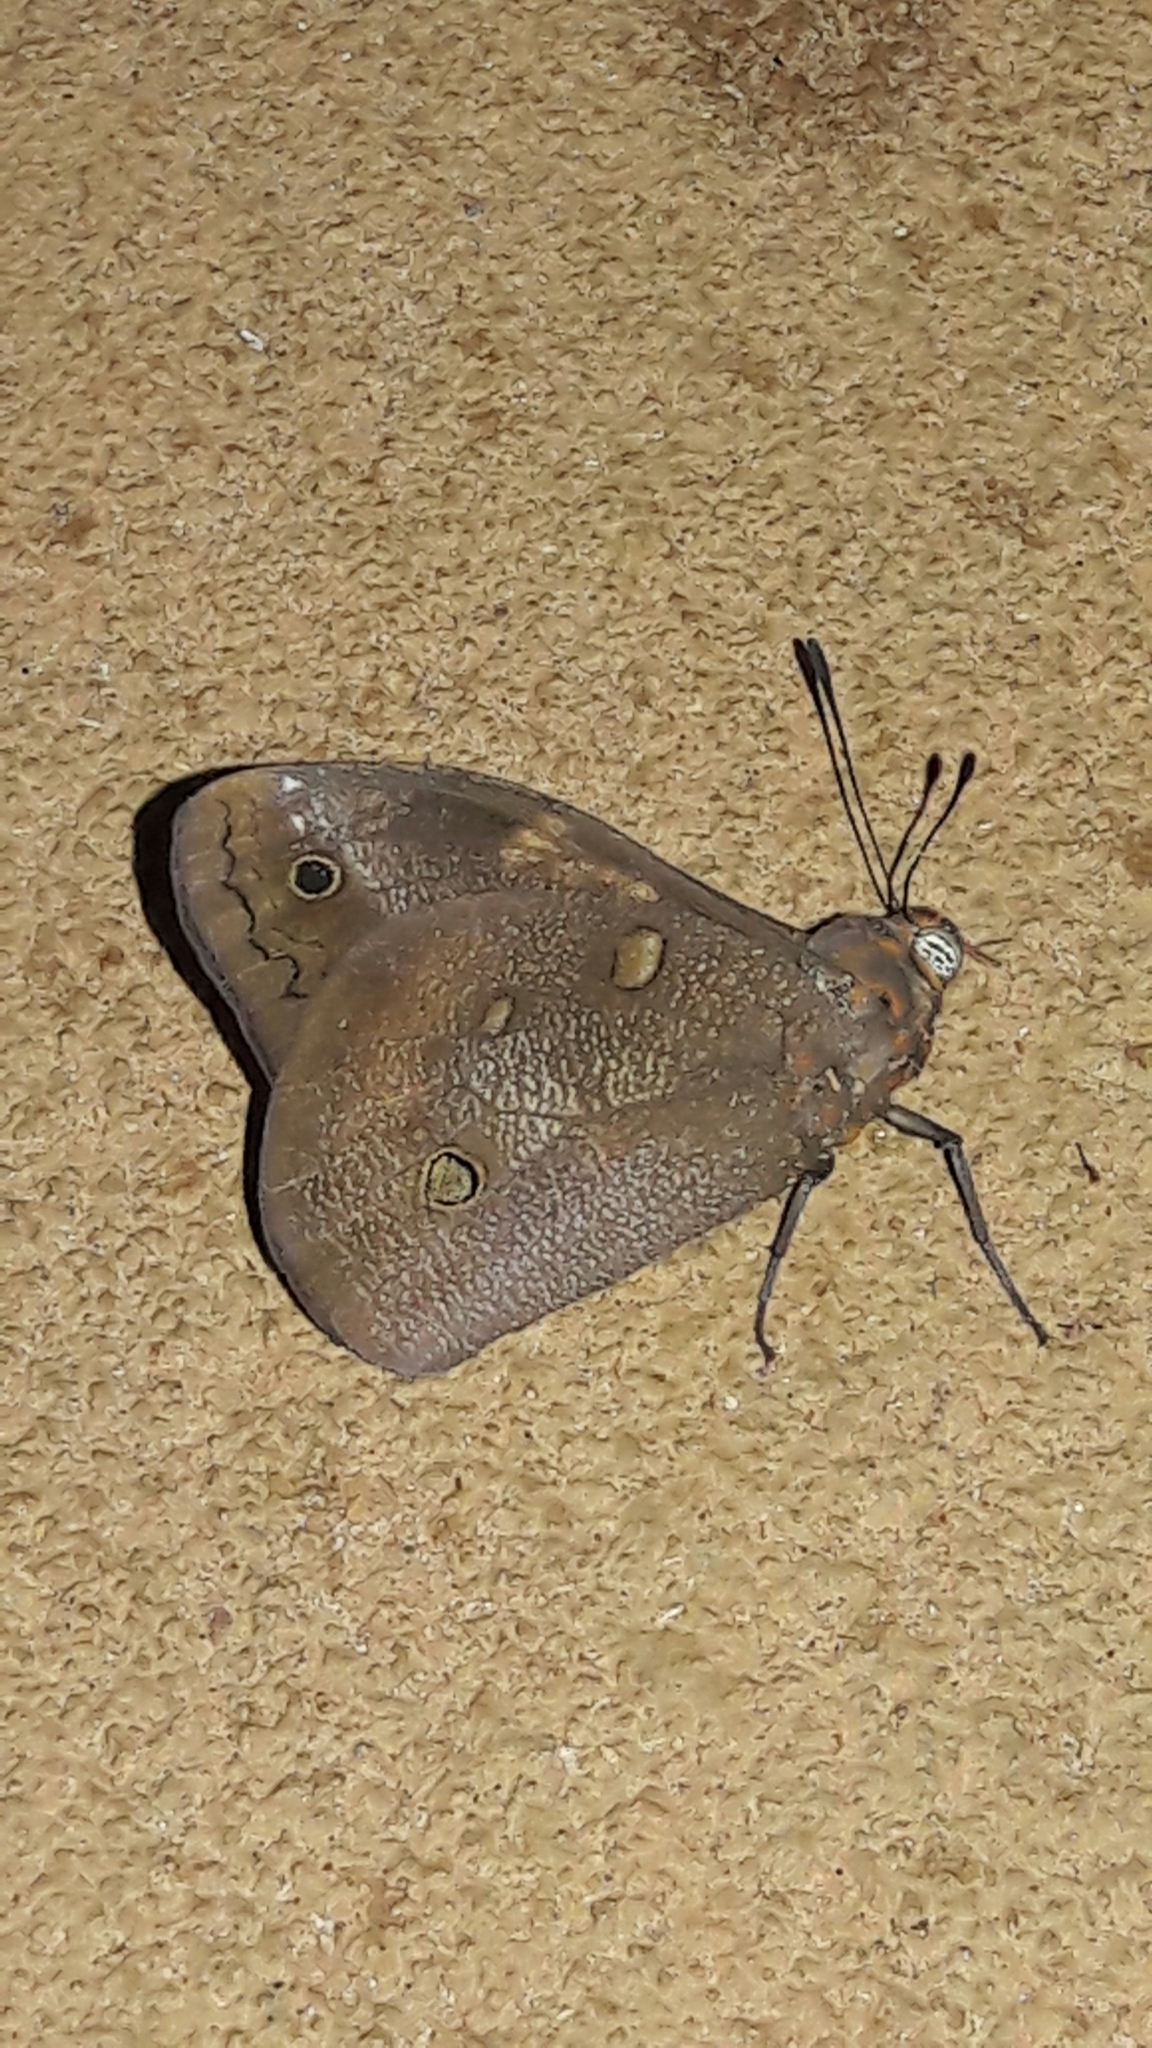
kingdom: Animalia
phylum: Arthropoda
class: Insecta
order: Lepidoptera
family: Nymphalidae
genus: Brassolis
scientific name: Brassolis sophorae
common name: Coconut caterpillar
